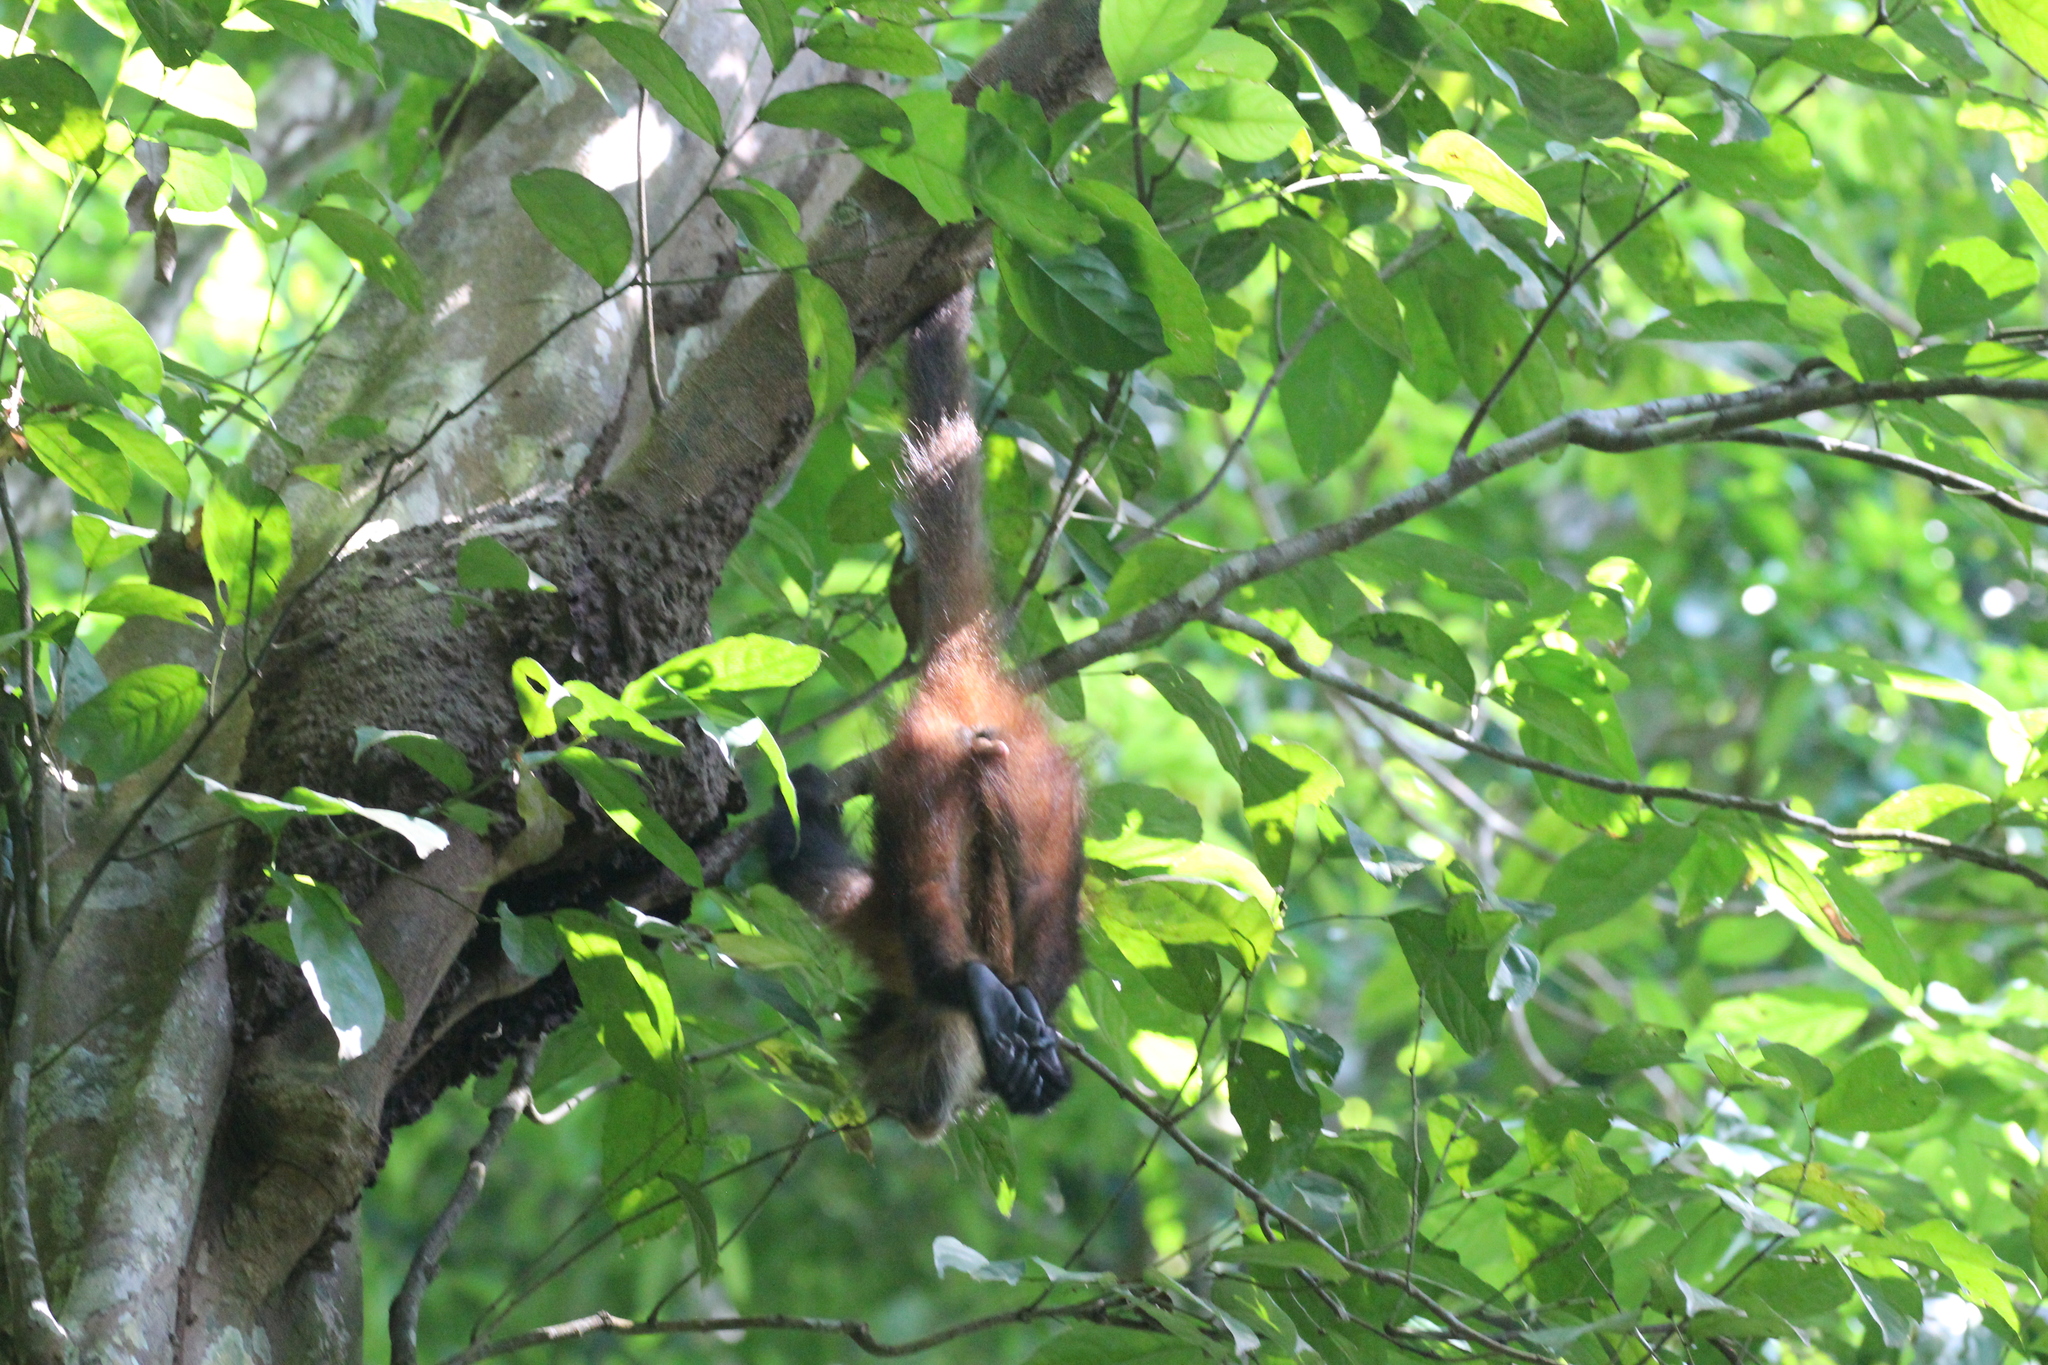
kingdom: Animalia
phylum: Chordata
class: Mammalia
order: Primates
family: Atelidae
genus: Ateles
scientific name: Ateles geoffroyi
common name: Black-handed spider monkey
